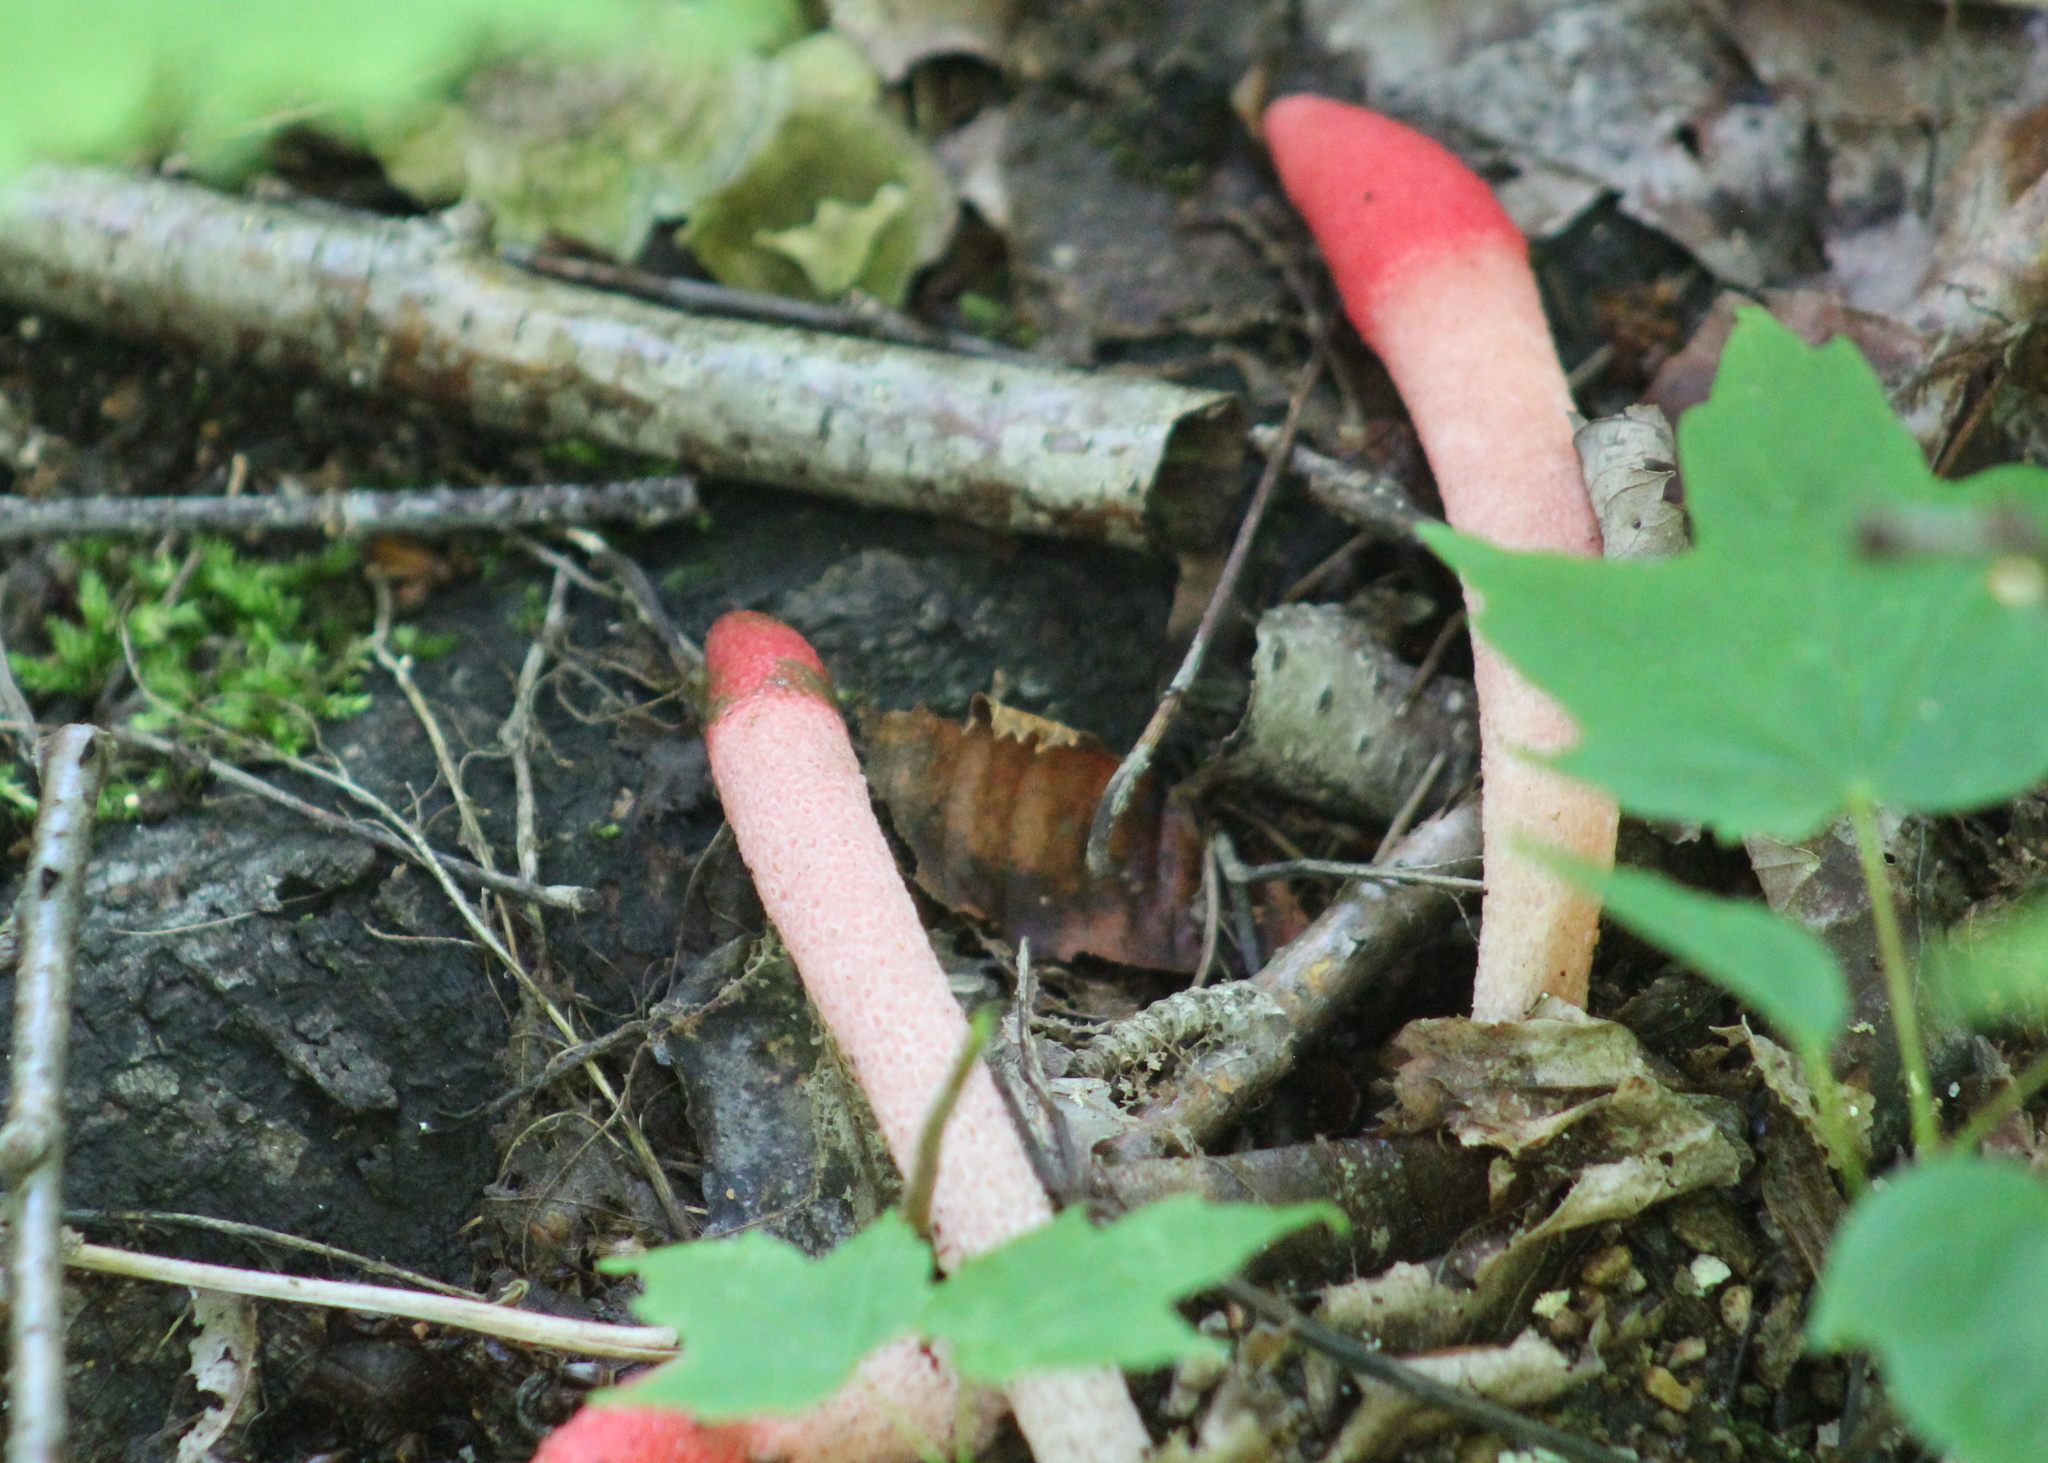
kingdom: Fungi
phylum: Basidiomycota
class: Agaricomycetes
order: Phallales
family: Phallaceae
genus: Mutinus
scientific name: Mutinus ravenelii
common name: Red stinkhorn
